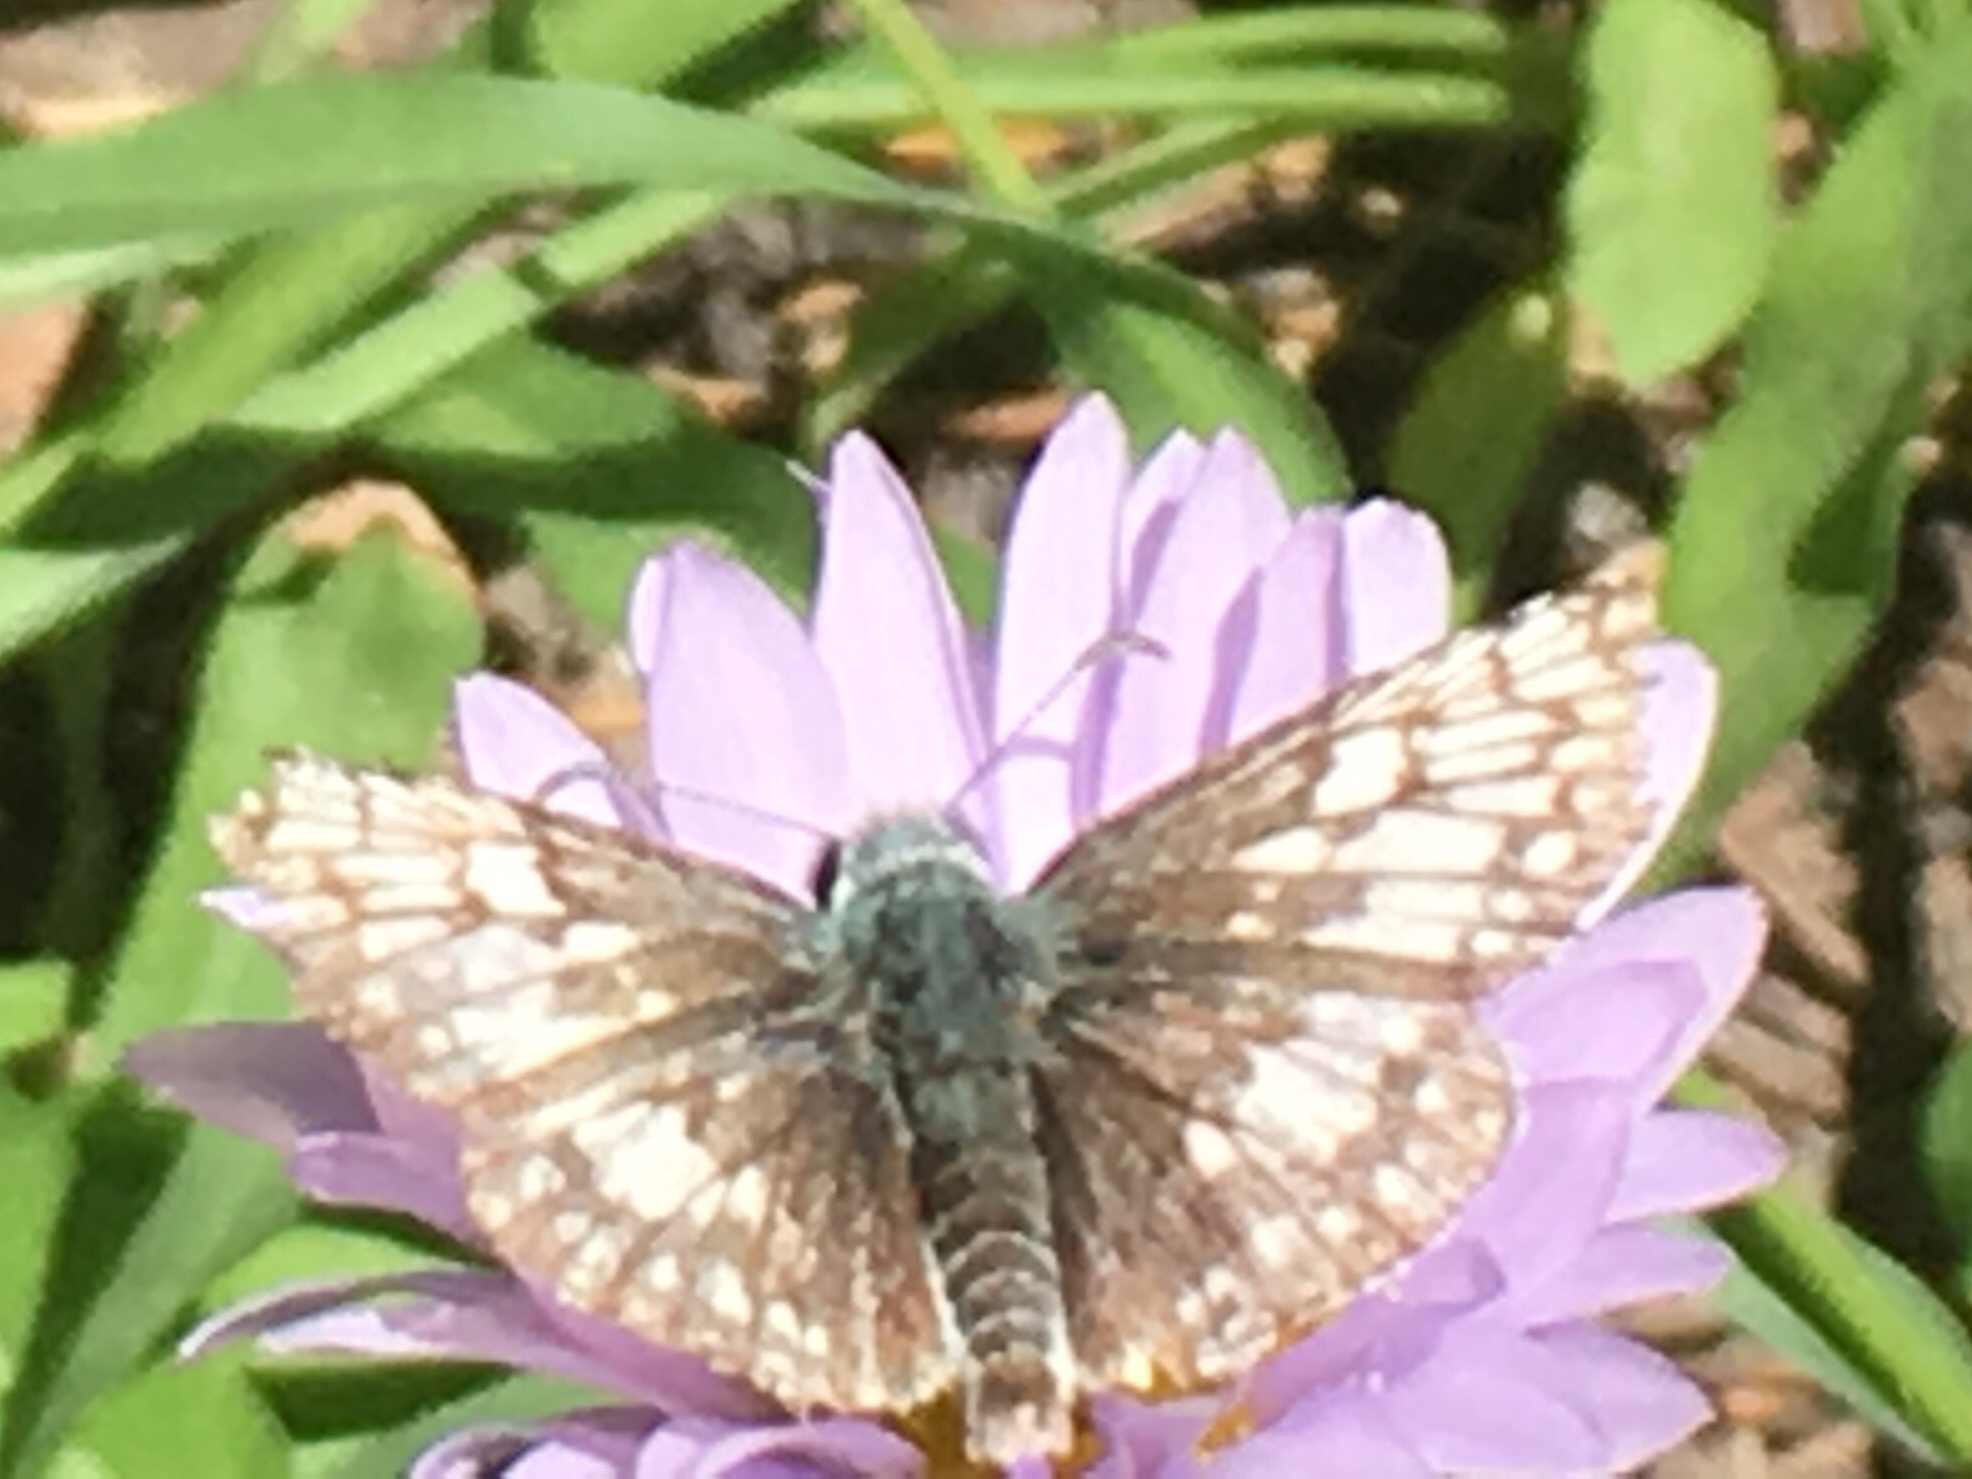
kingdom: Animalia
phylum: Arthropoda
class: Insecta
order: Lepidoptera
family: Hesperiidae
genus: Burnsius
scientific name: Burnsius communis
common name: Common checkered-skipper
